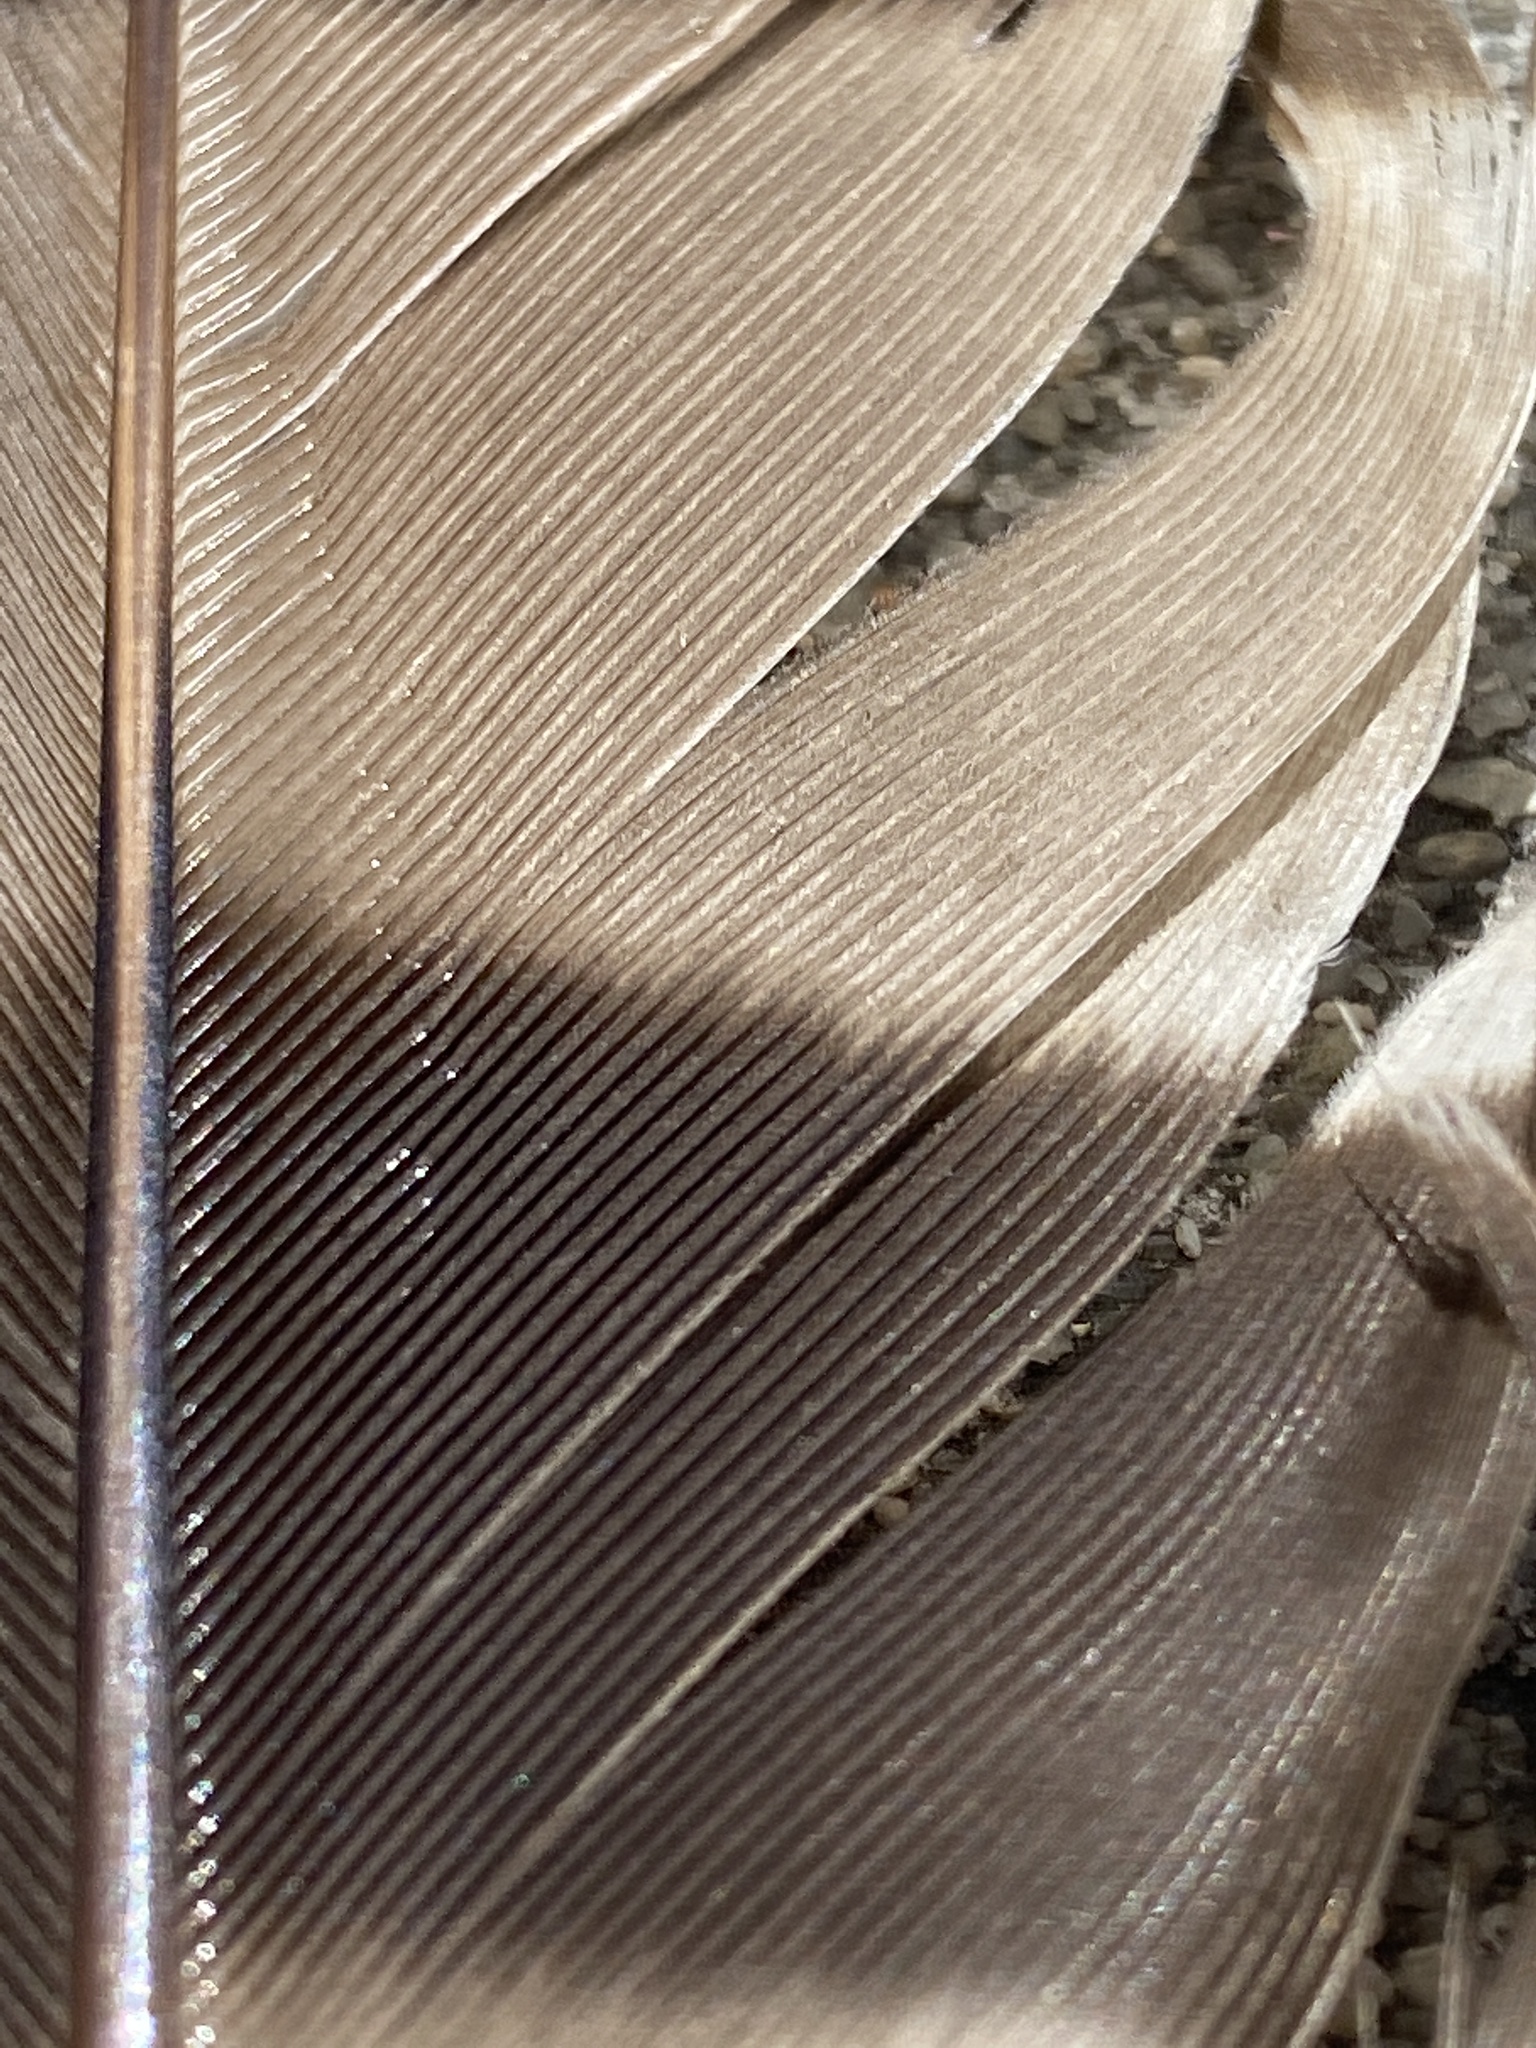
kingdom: Animalia
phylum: Chordata
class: Aves
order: Accipitriformes
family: Accipitridae
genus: Accipiter
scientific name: Accipiter cooperii
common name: Cooper's hawk
